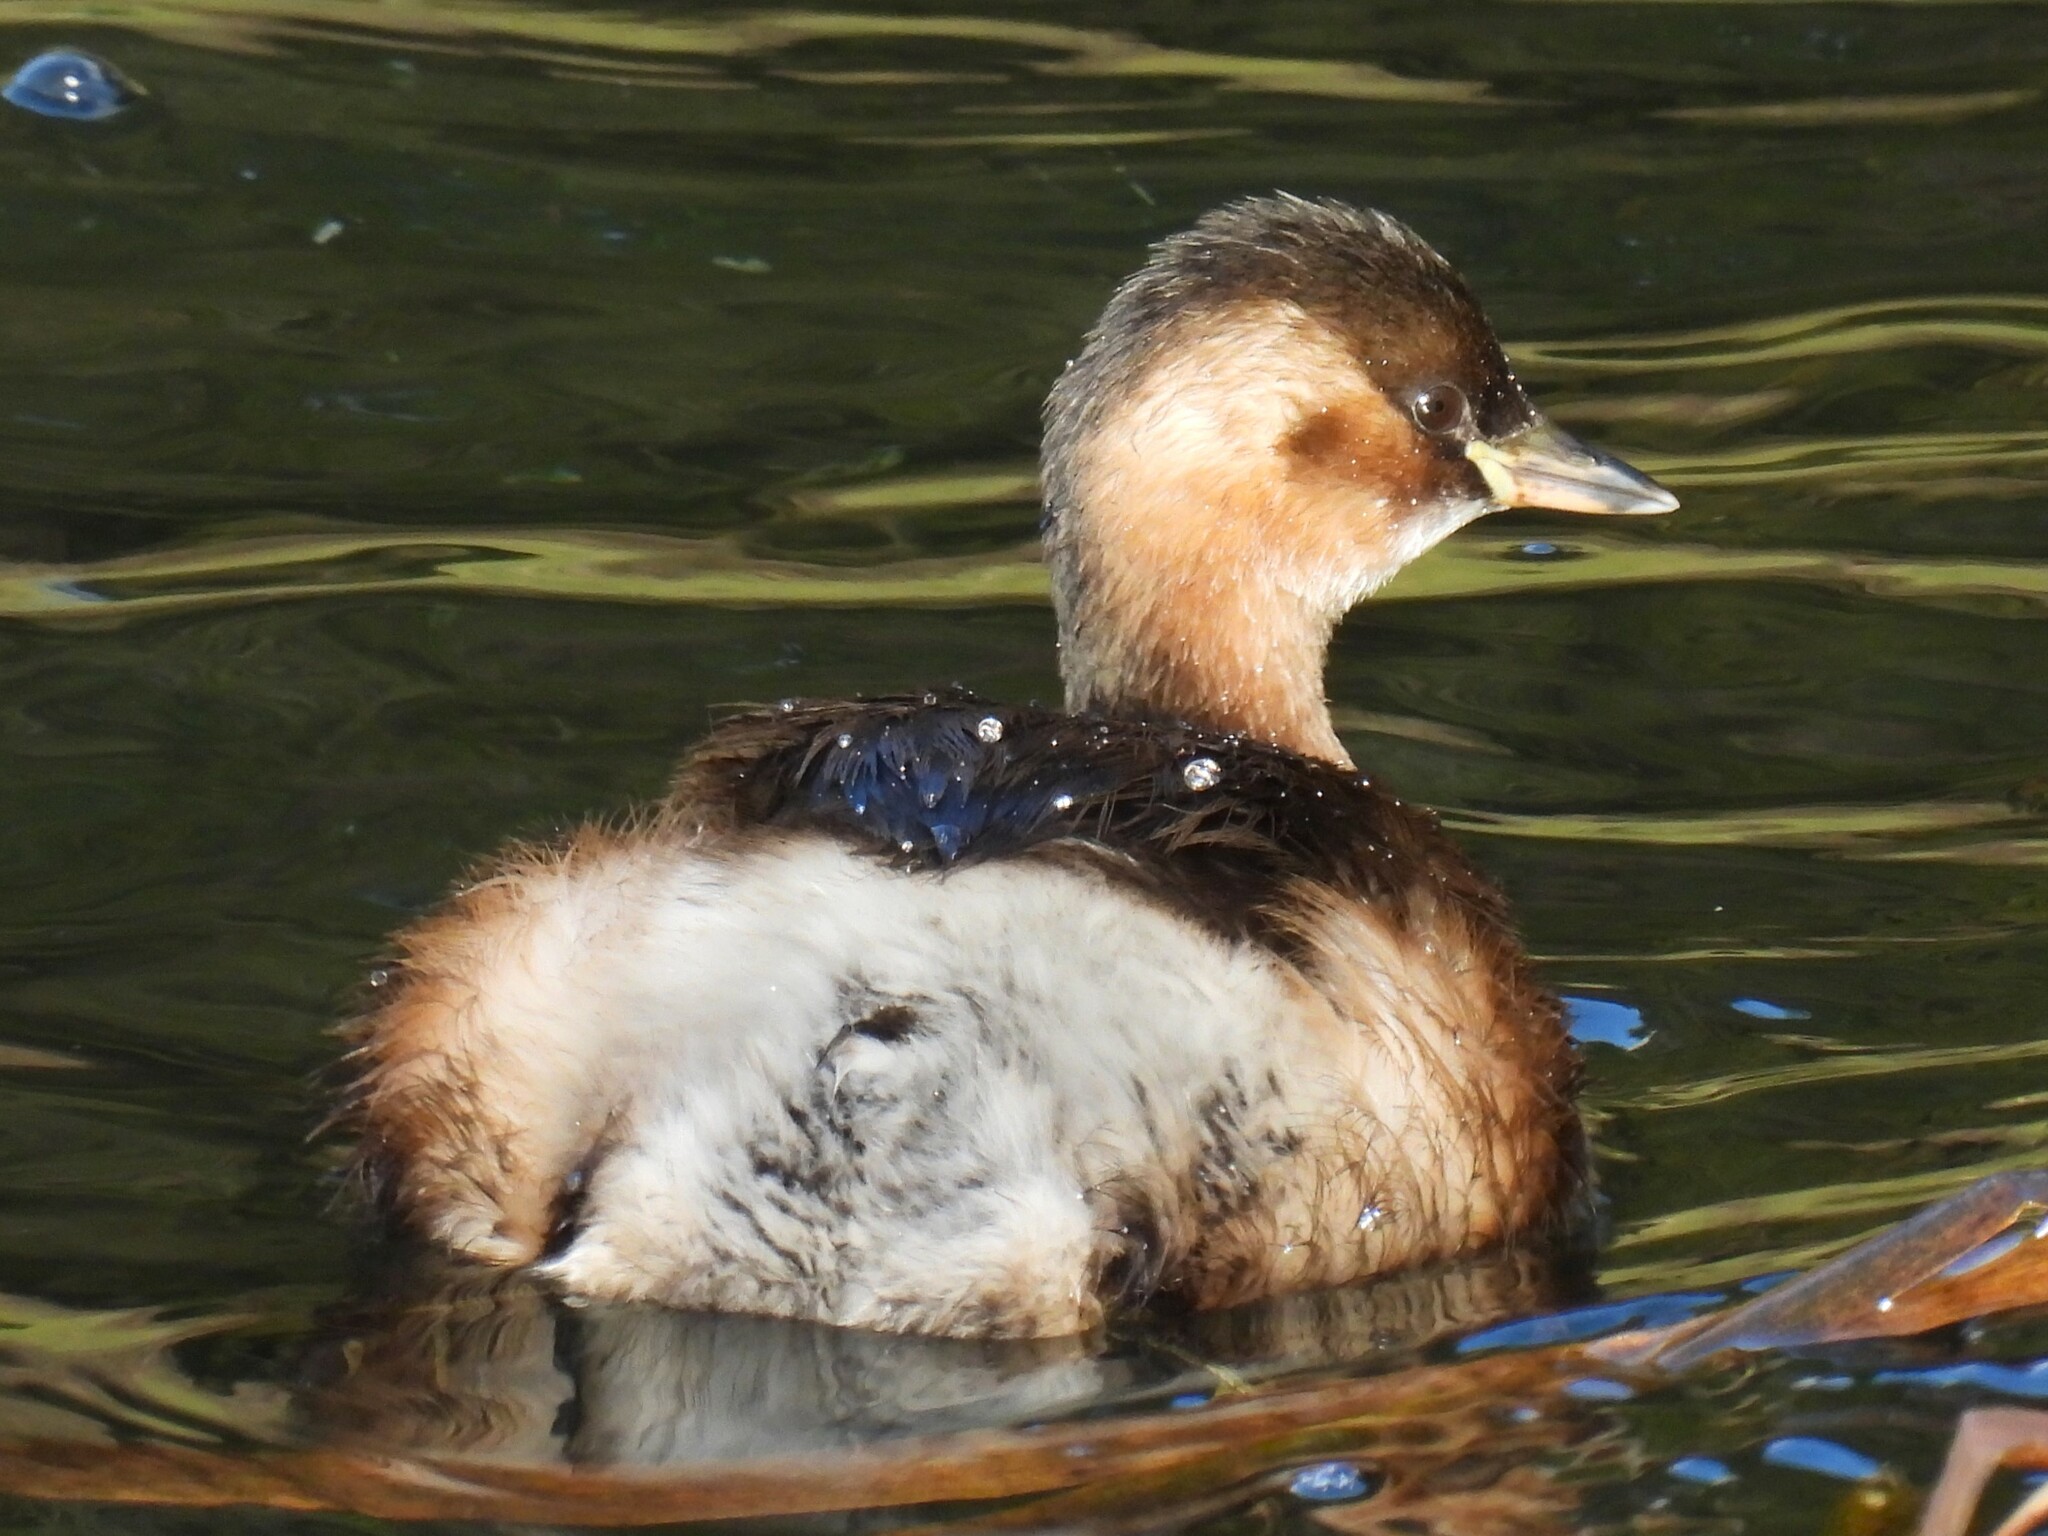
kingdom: Animalia
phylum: Chordata
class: Aves
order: Podicipediformes
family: Podicipedidae
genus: Tachybaptus
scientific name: Tachybaptus ruficollis
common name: Little grebe
